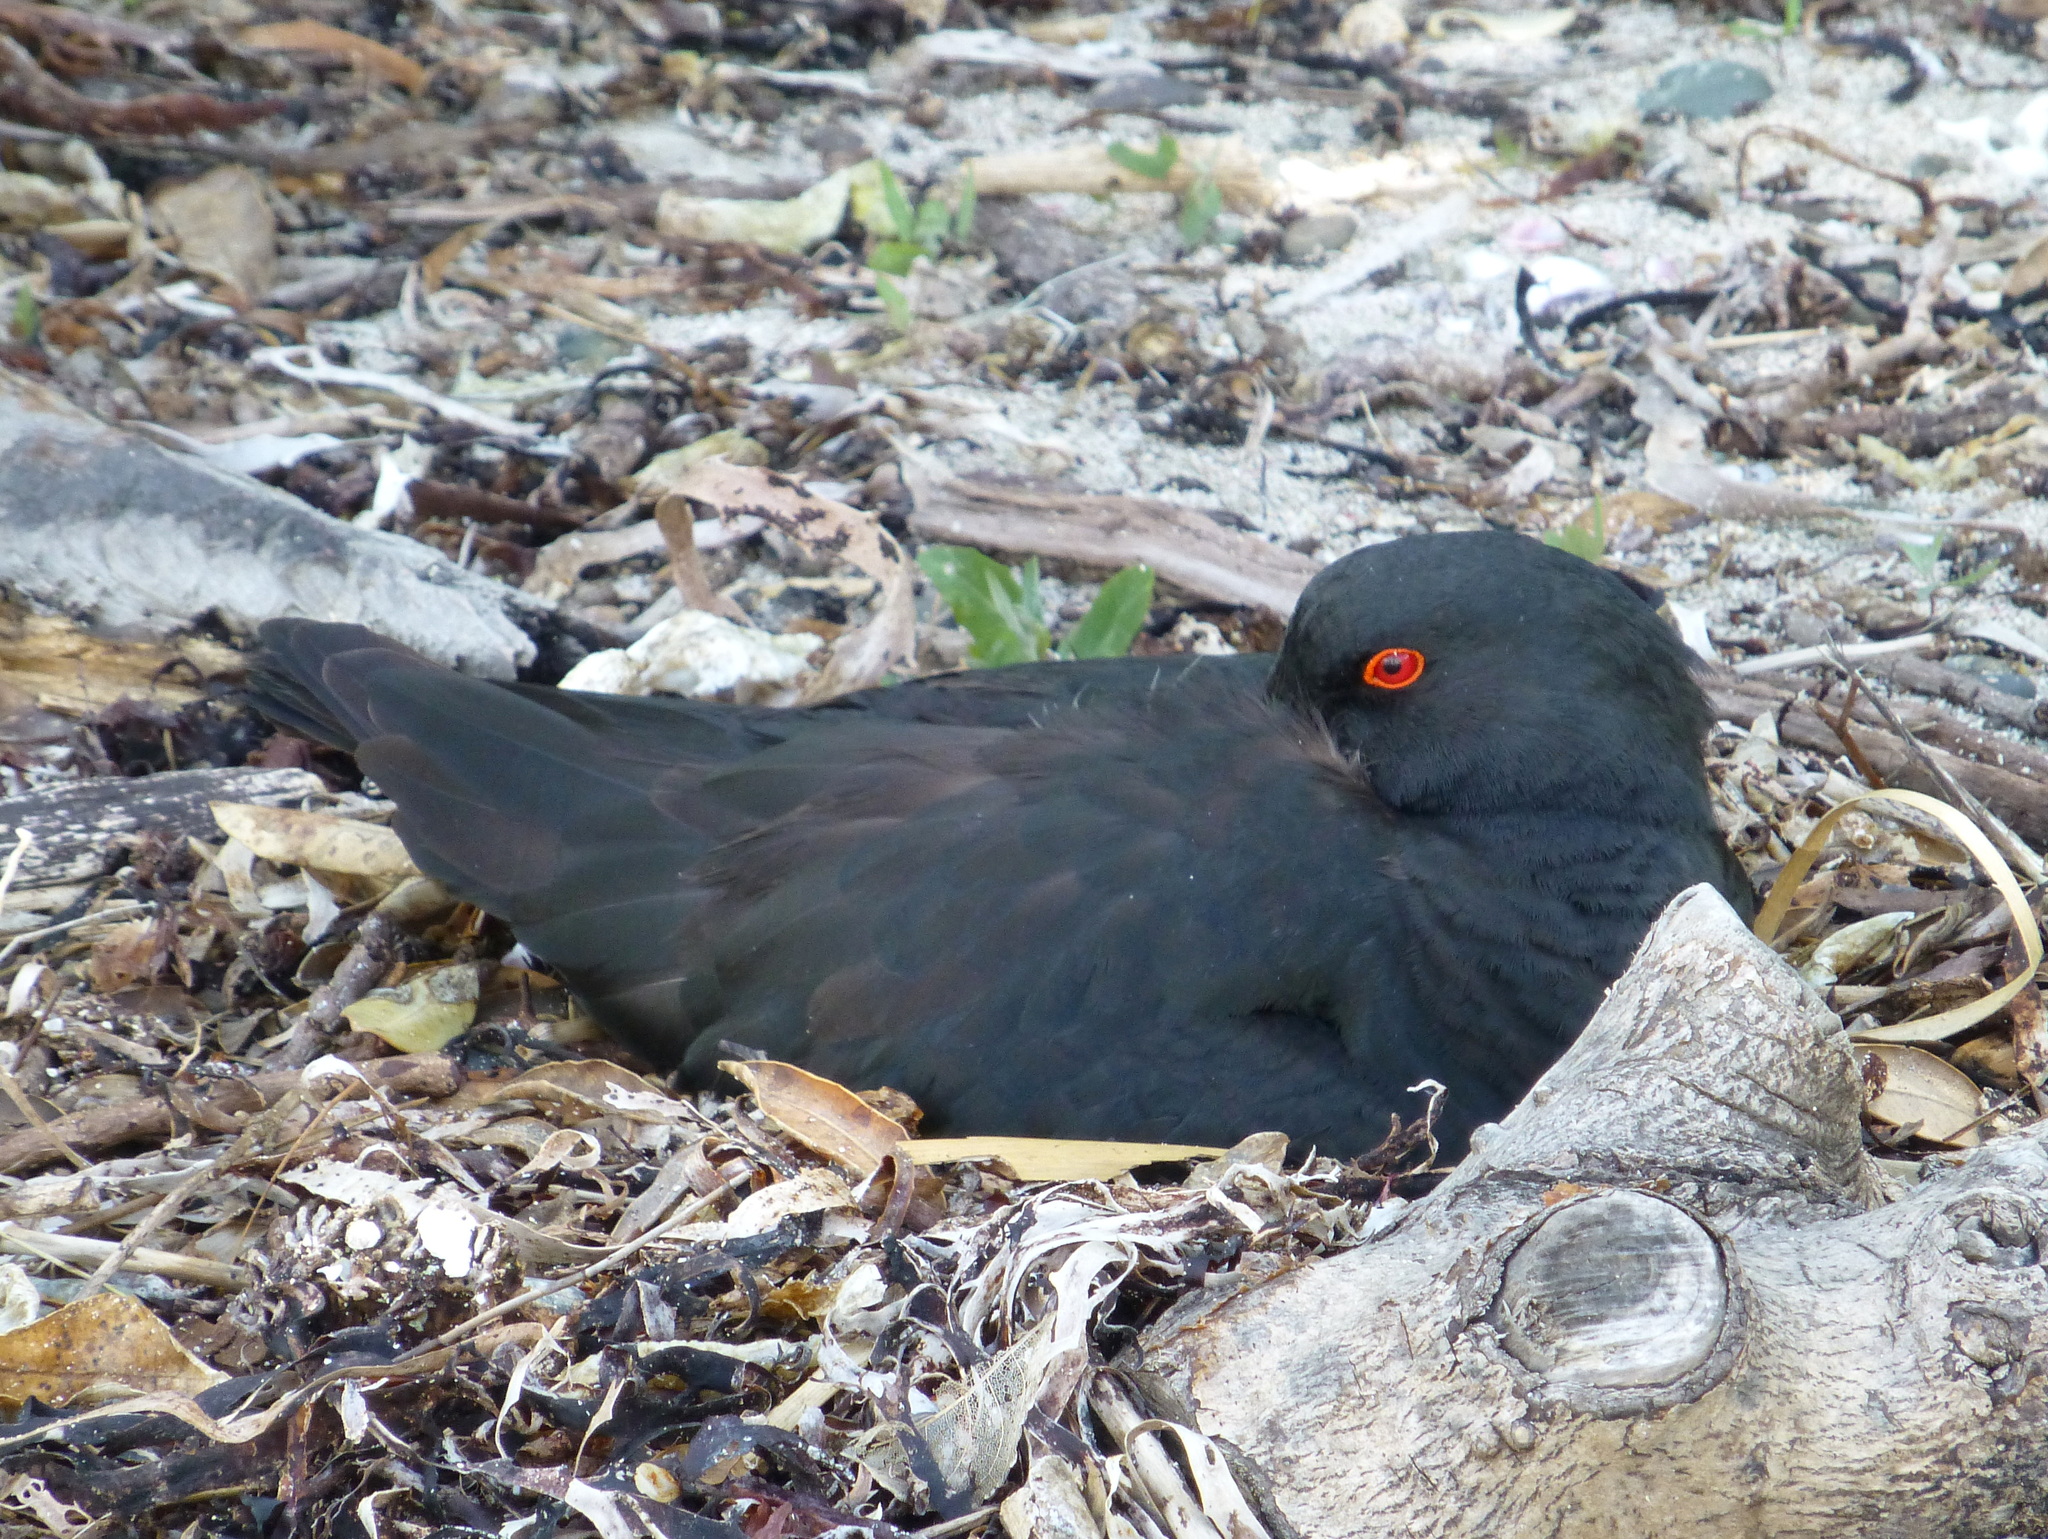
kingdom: Animalia
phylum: Chordata
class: Aves
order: Charadriiformes
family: Haematopodidae
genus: Haematopus
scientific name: Haematopus unicolor
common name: Variable oystercatcher
